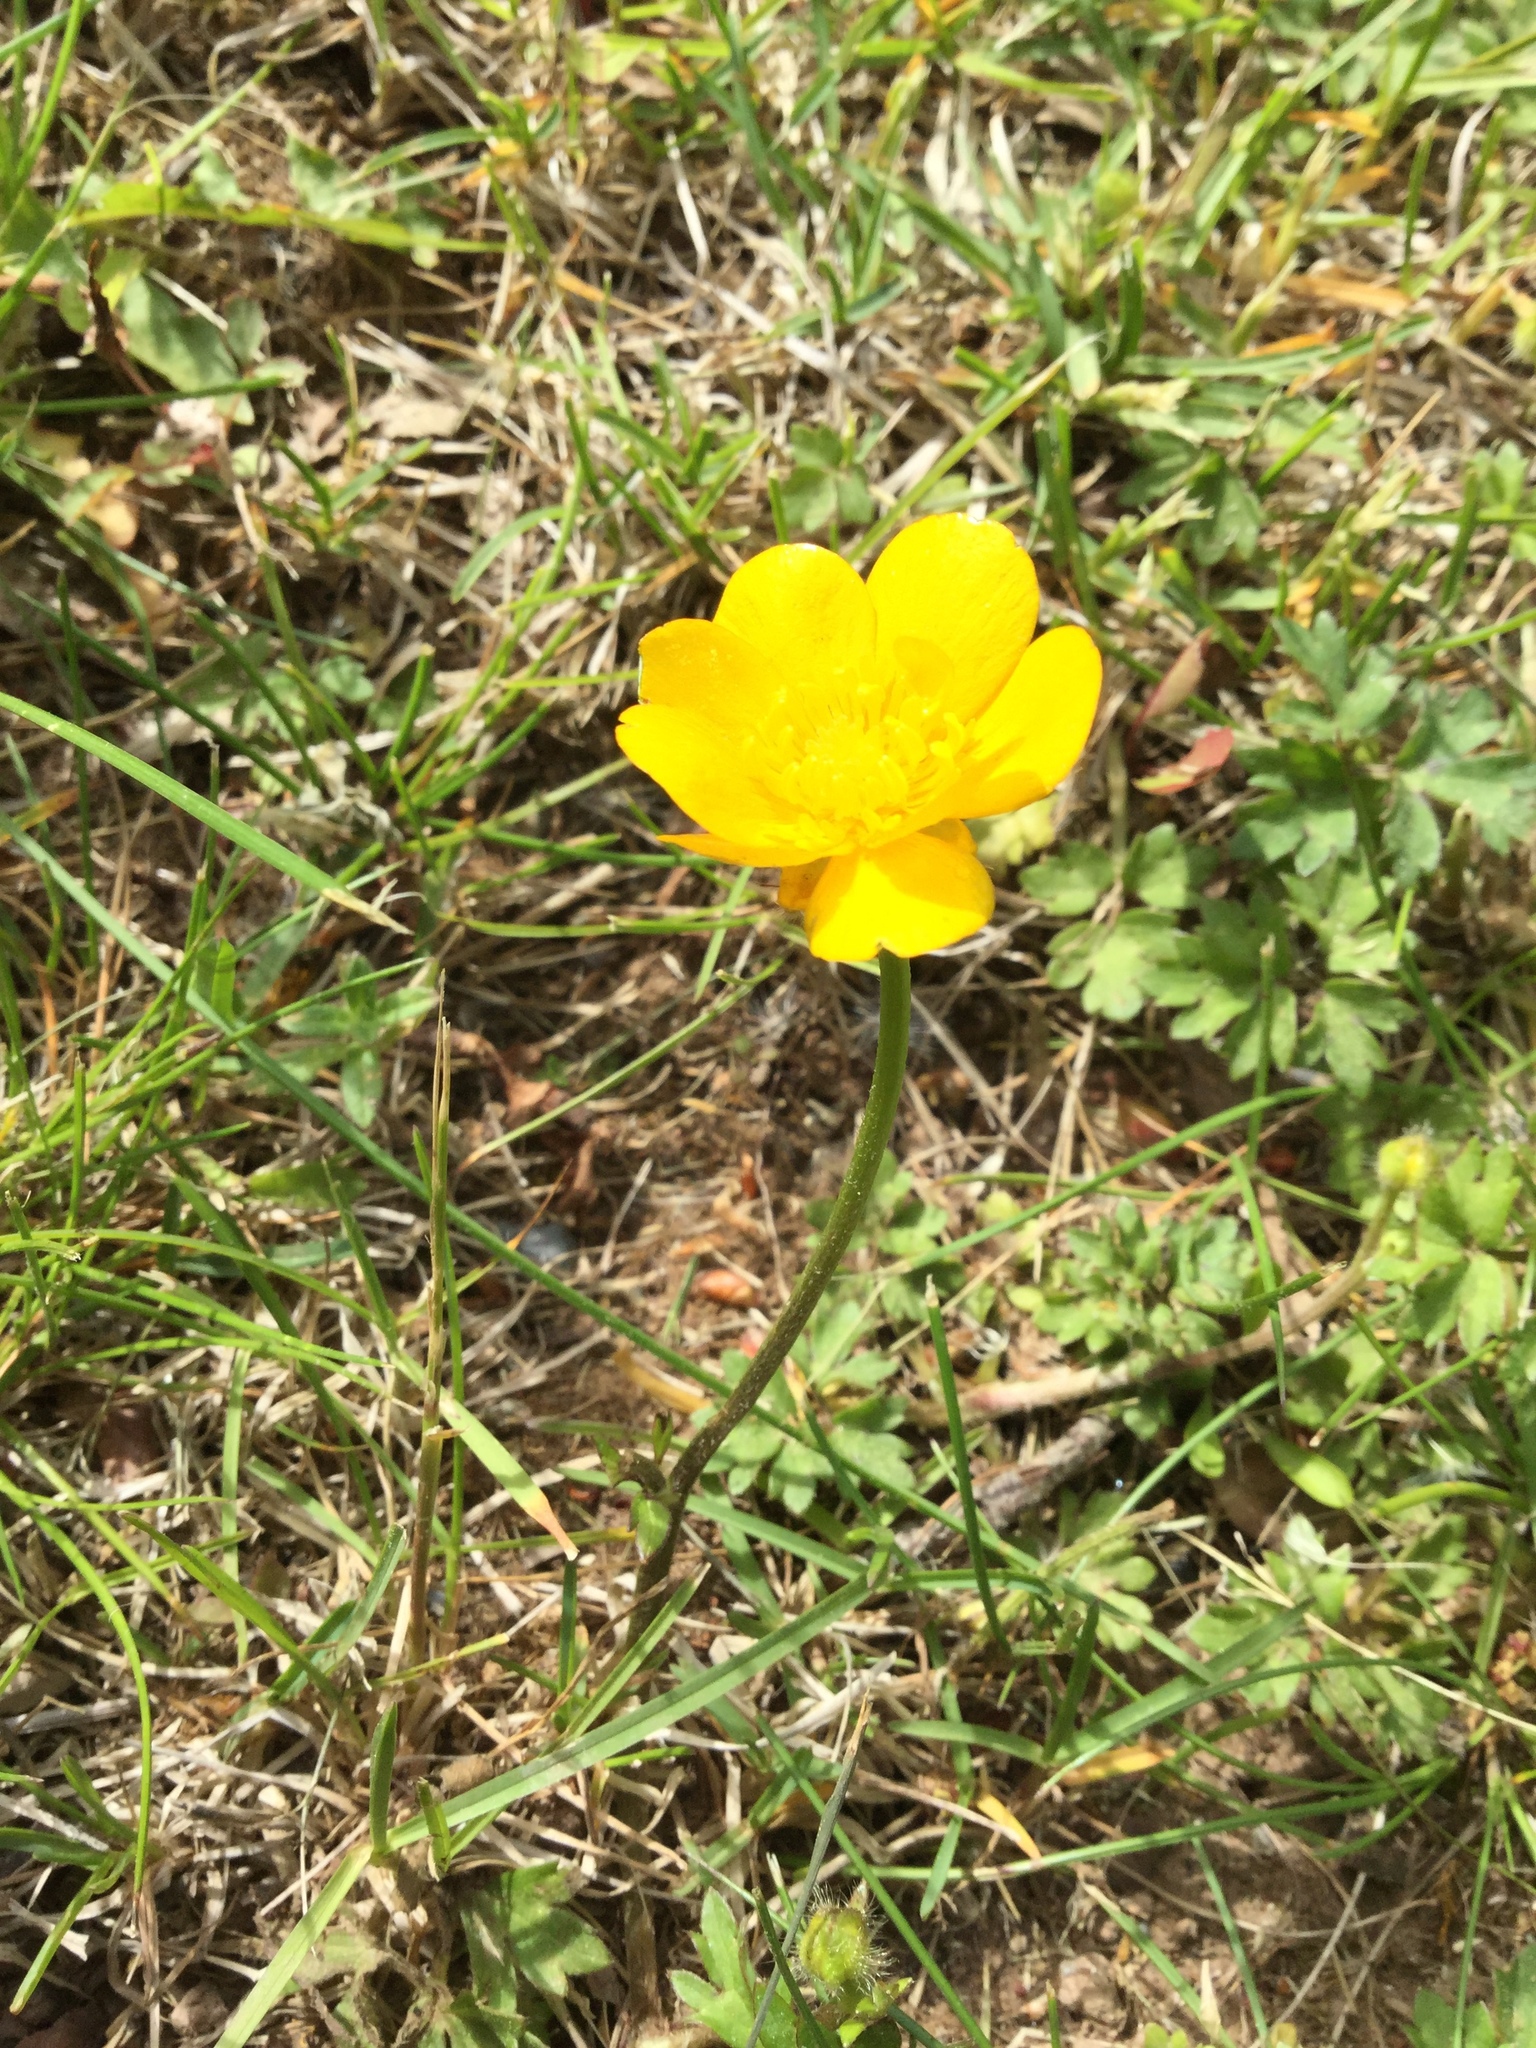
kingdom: Plantae
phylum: Tracheophyta
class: Magnoliopsida
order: Ranunculales
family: Ranunculaceae
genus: Ranunculus
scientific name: Ranunculus acris
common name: Meadow buttercup
